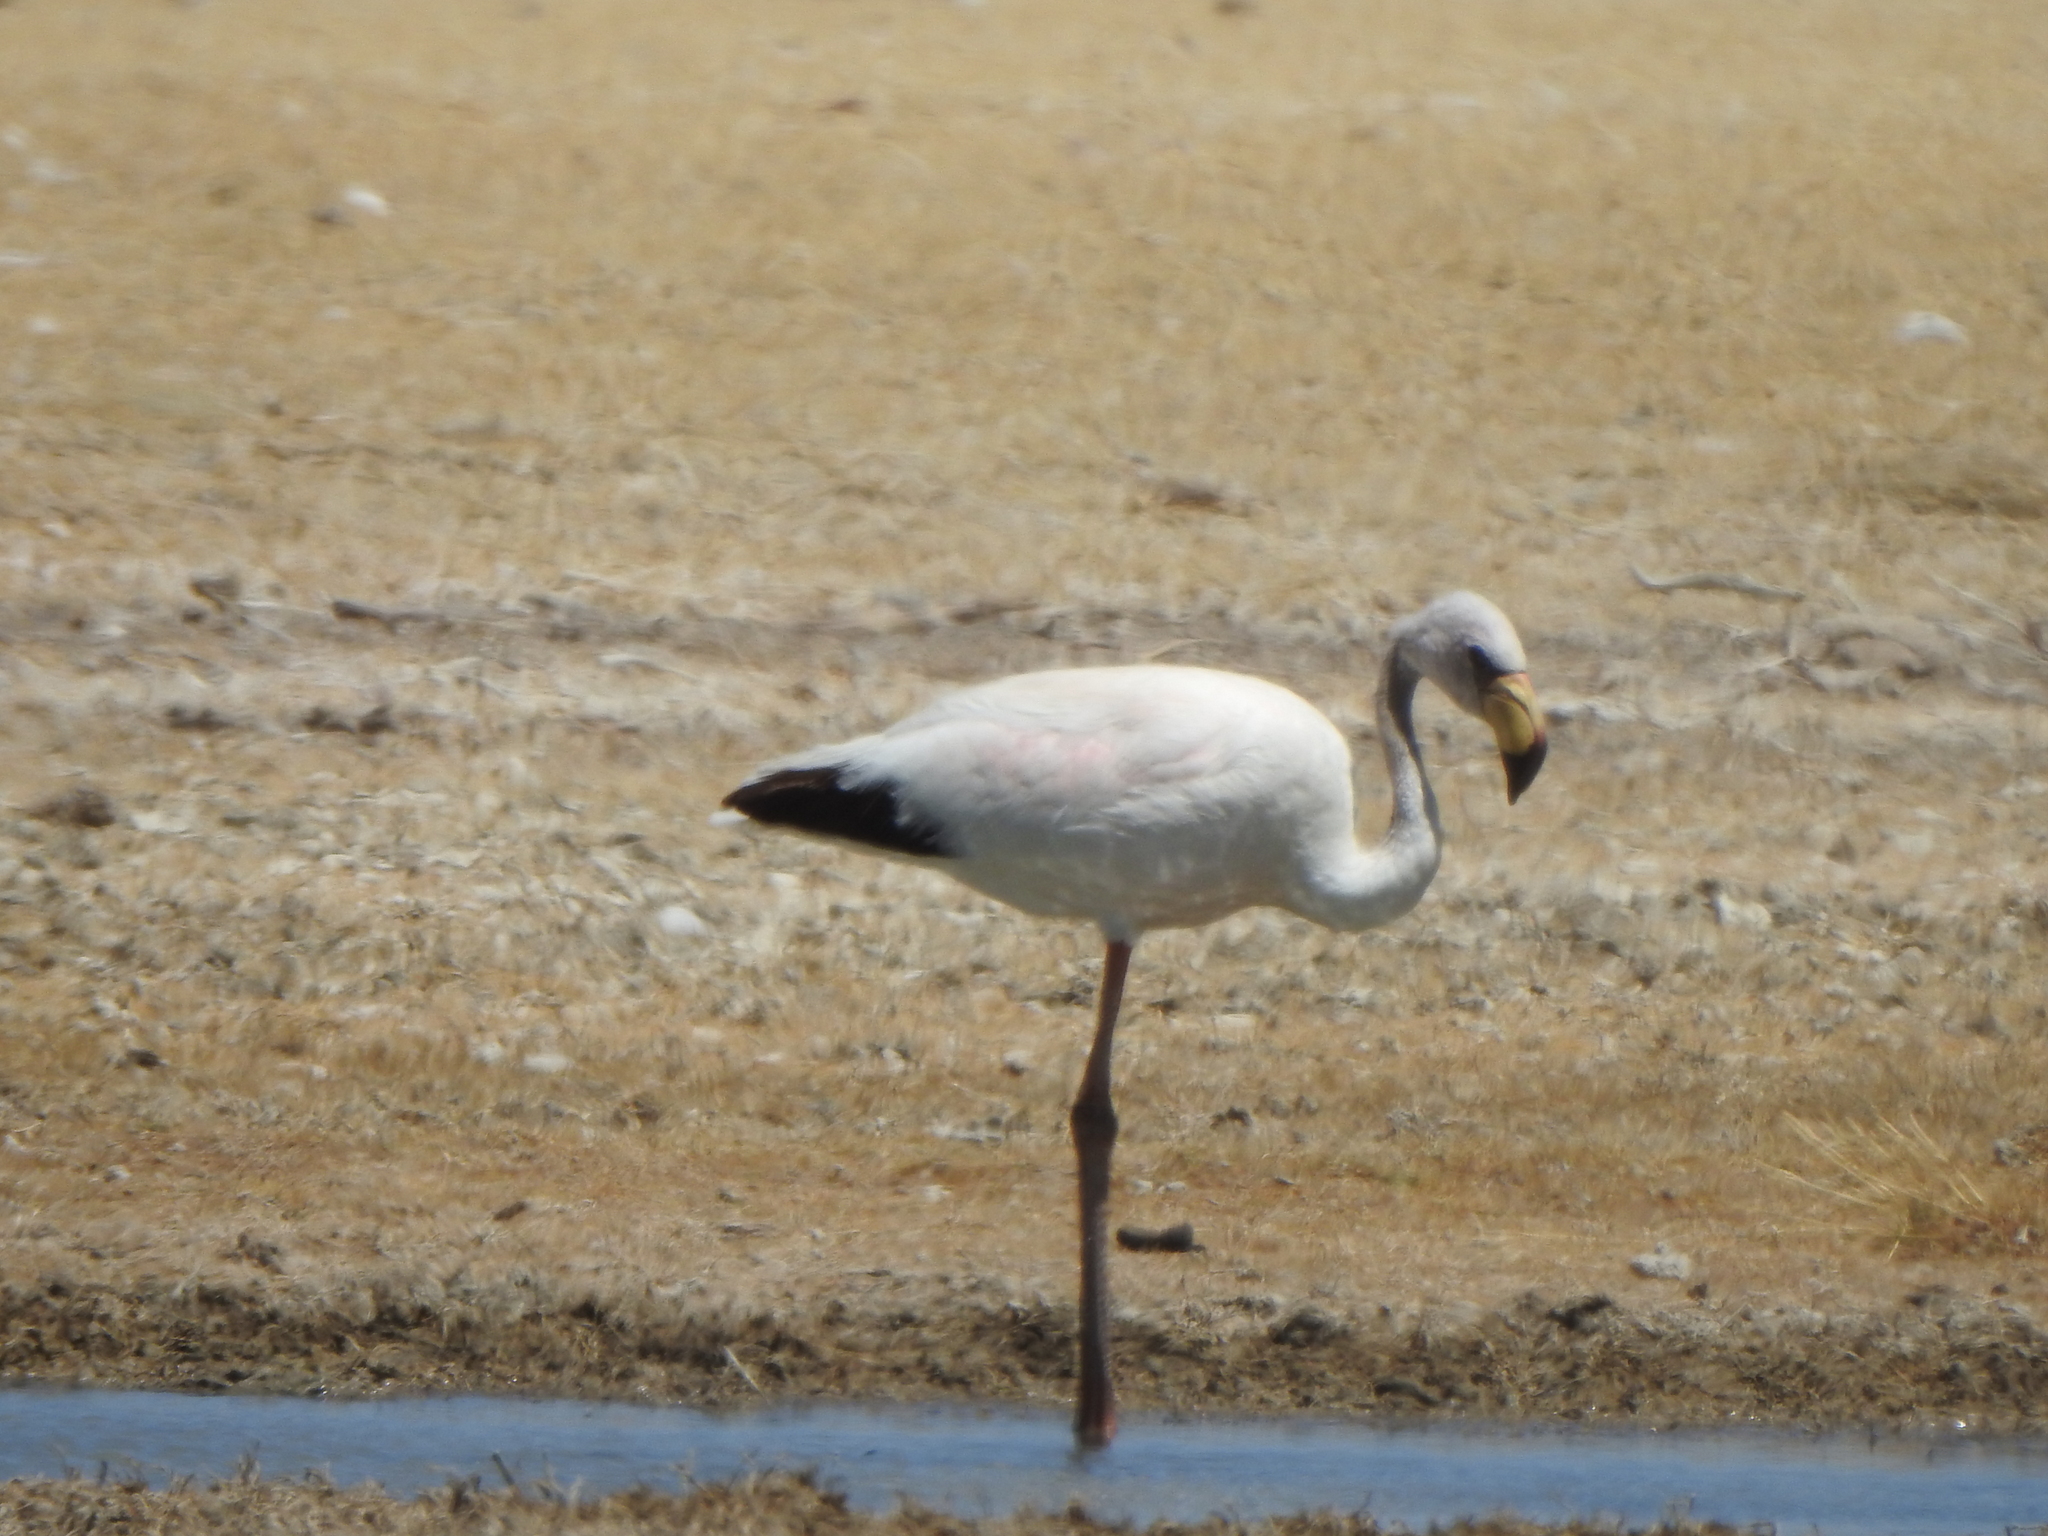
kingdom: Animalia
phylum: Chordata
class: Aves
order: Phoenicopteriformes
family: Phoenicopteridae
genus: Phoenicoparrus
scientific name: Phoenicoparrus jamesi
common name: James's flamingo
